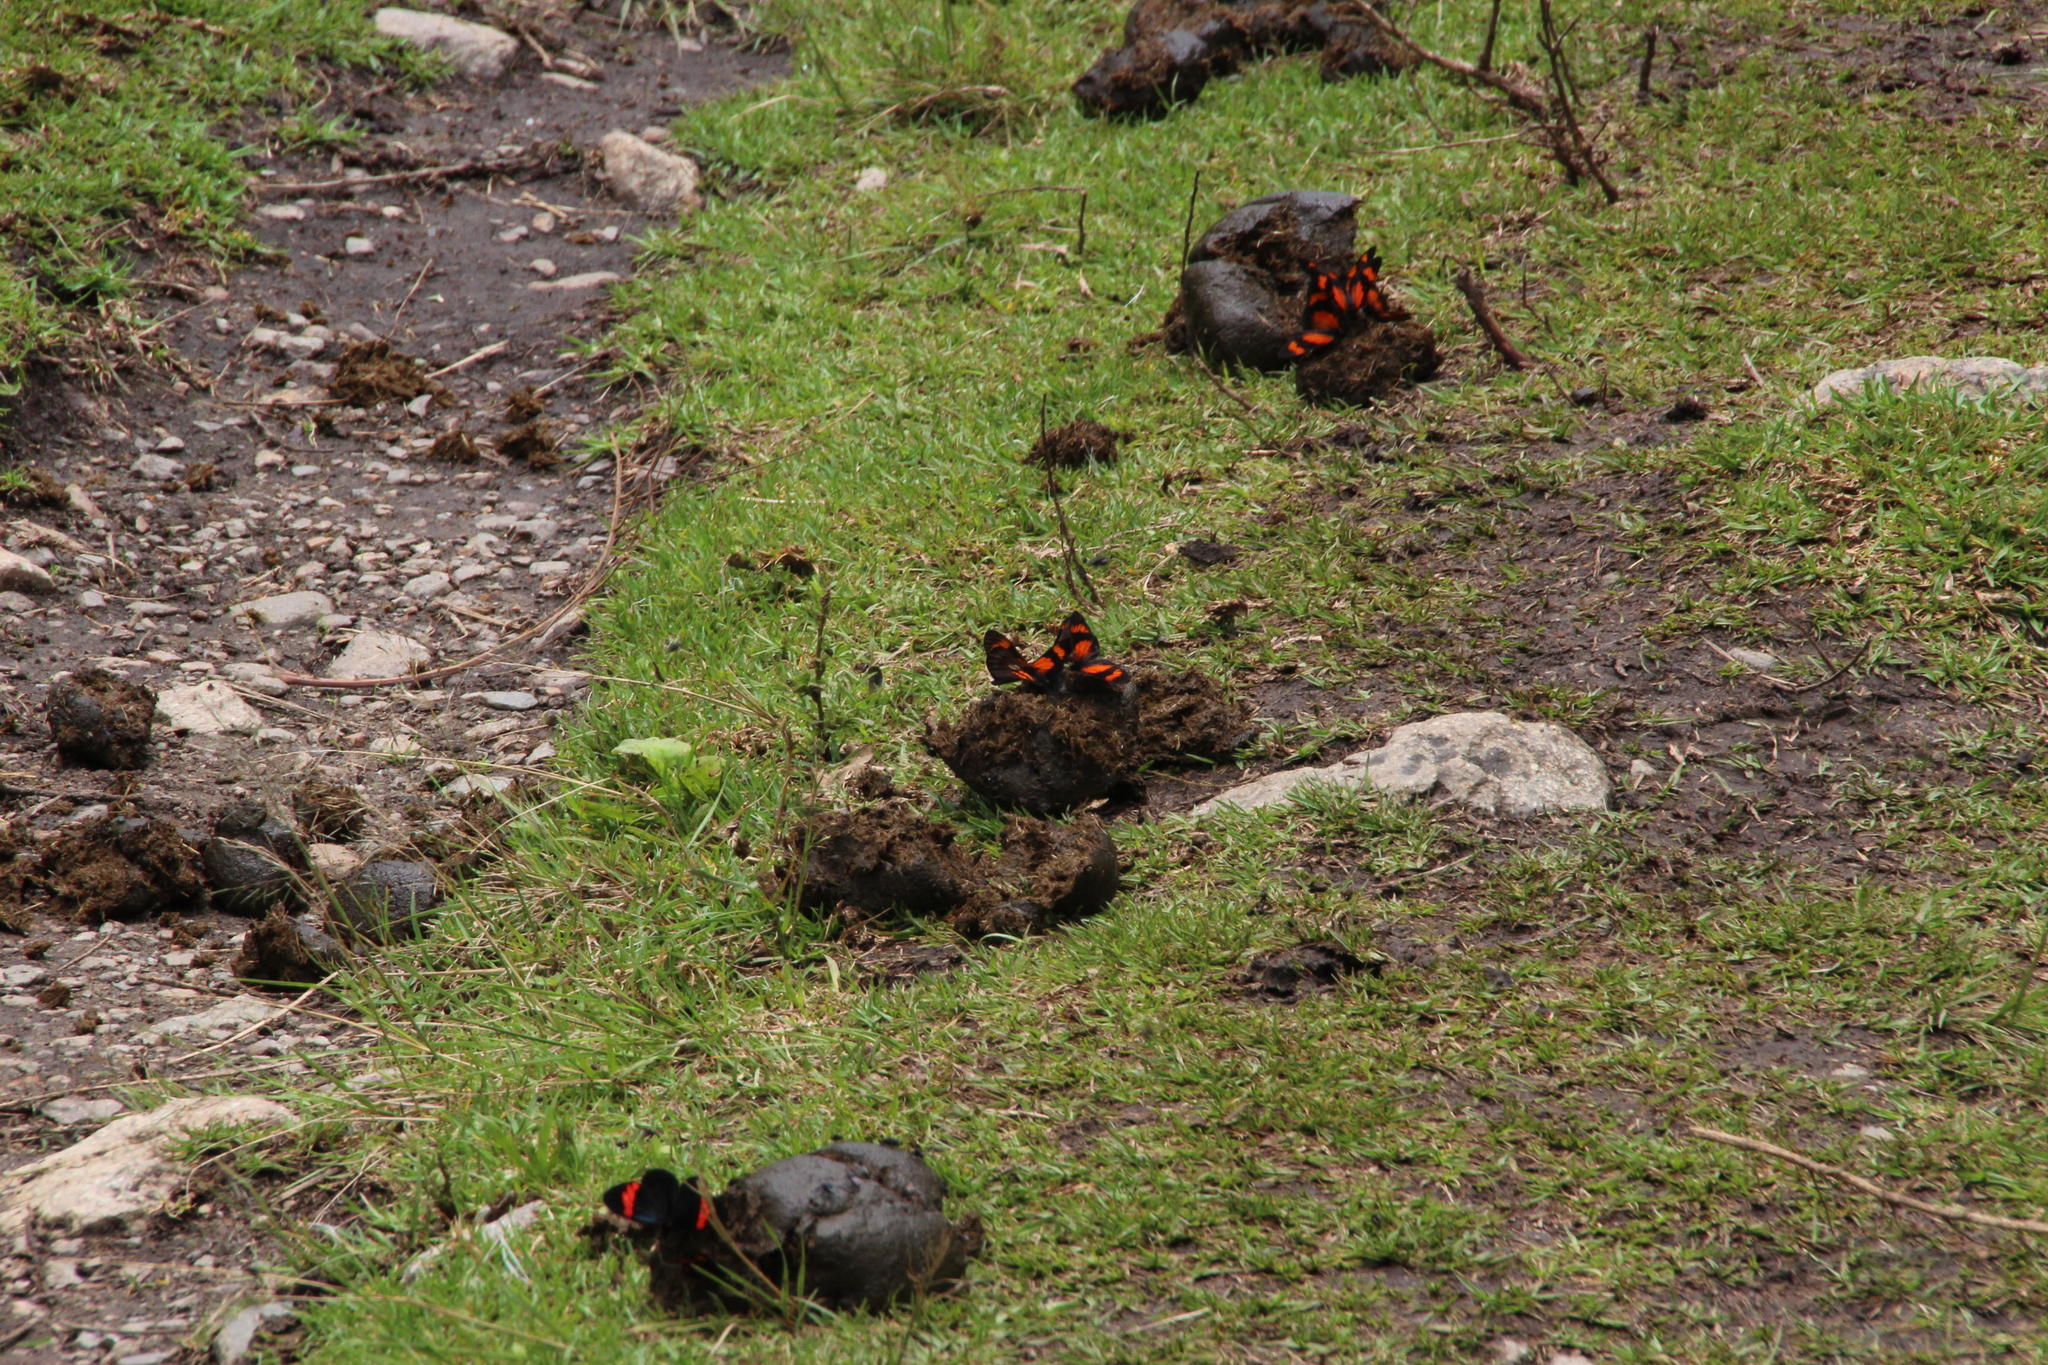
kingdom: Animalia
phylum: Arthropoda
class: Insecta
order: Lepidoptera
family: Nymphalidae
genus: Actinote
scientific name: Actinote negra
